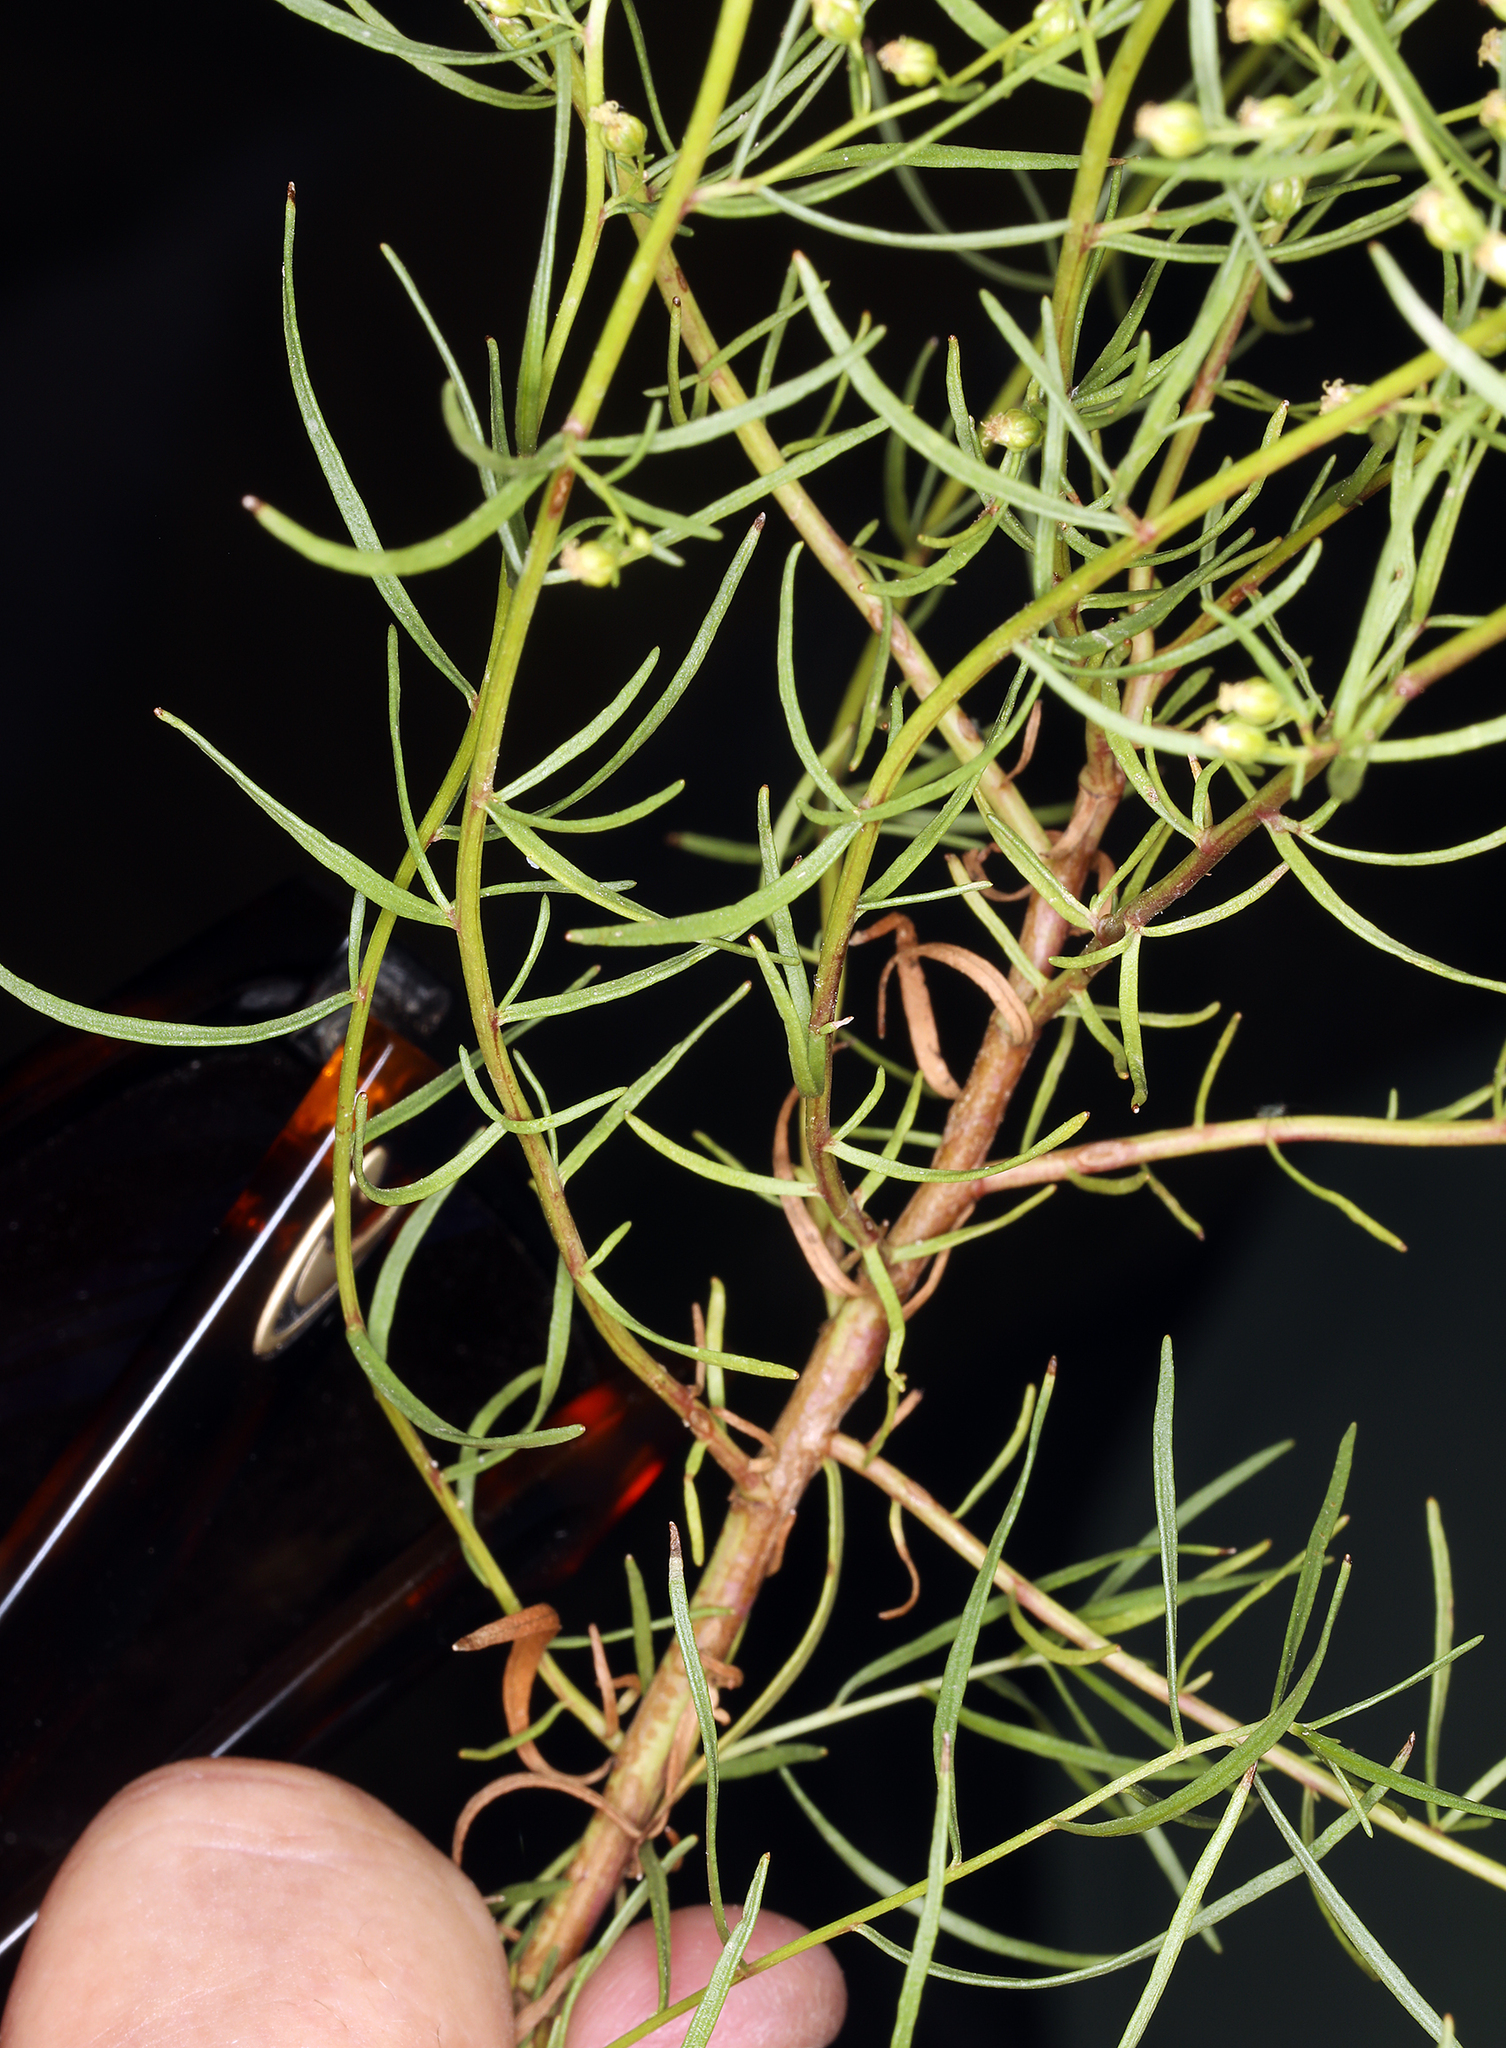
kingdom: Plantae
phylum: Tracheophyta
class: Magnoliopsida
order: Asterales
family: Asteraceae
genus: Artemisia
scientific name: Artemisia dracunculus
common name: Tarragon
